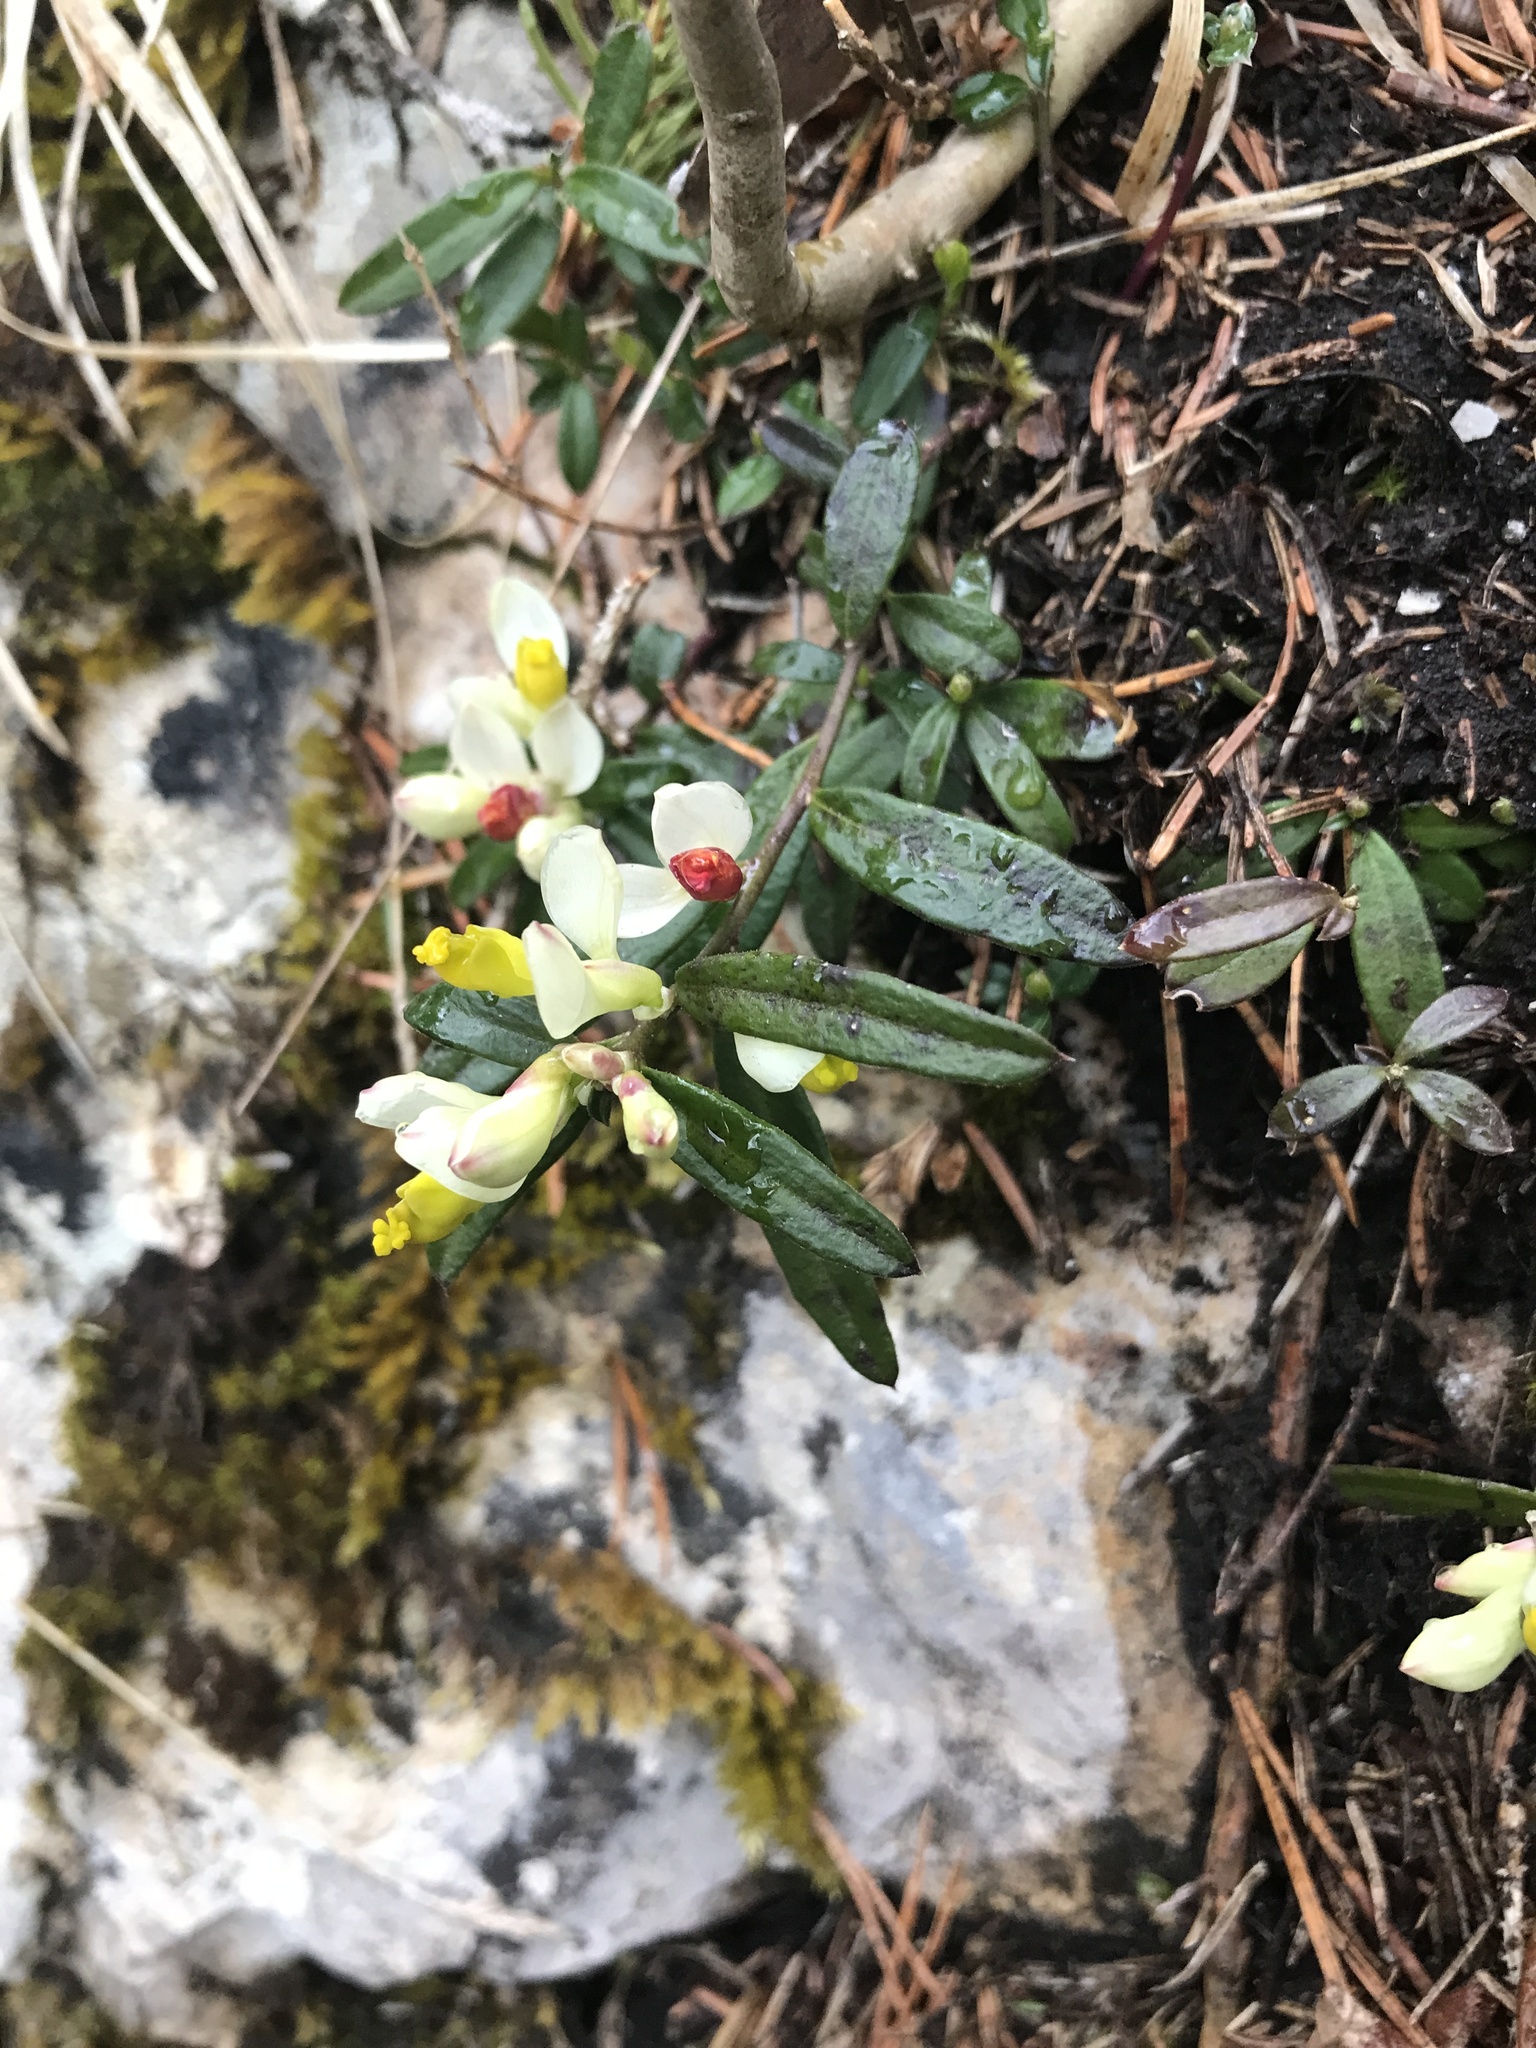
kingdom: Plantae
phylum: Tracheophyta
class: Magnoliopsida
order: Fabales
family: Polygalaceae
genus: Polygaloides
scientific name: Polygaloides chamaebuxus
